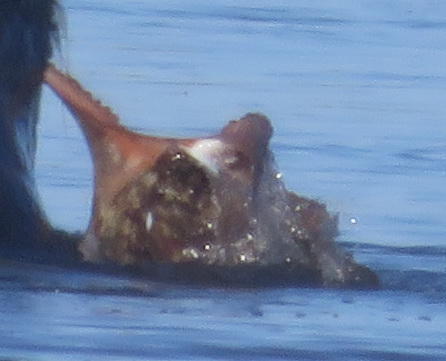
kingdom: Animalia
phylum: Mollusca
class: Cephalopoda
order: Octopoda
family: Octopodidae
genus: Octopus
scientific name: Octopus vulgaris
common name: Common octopus
